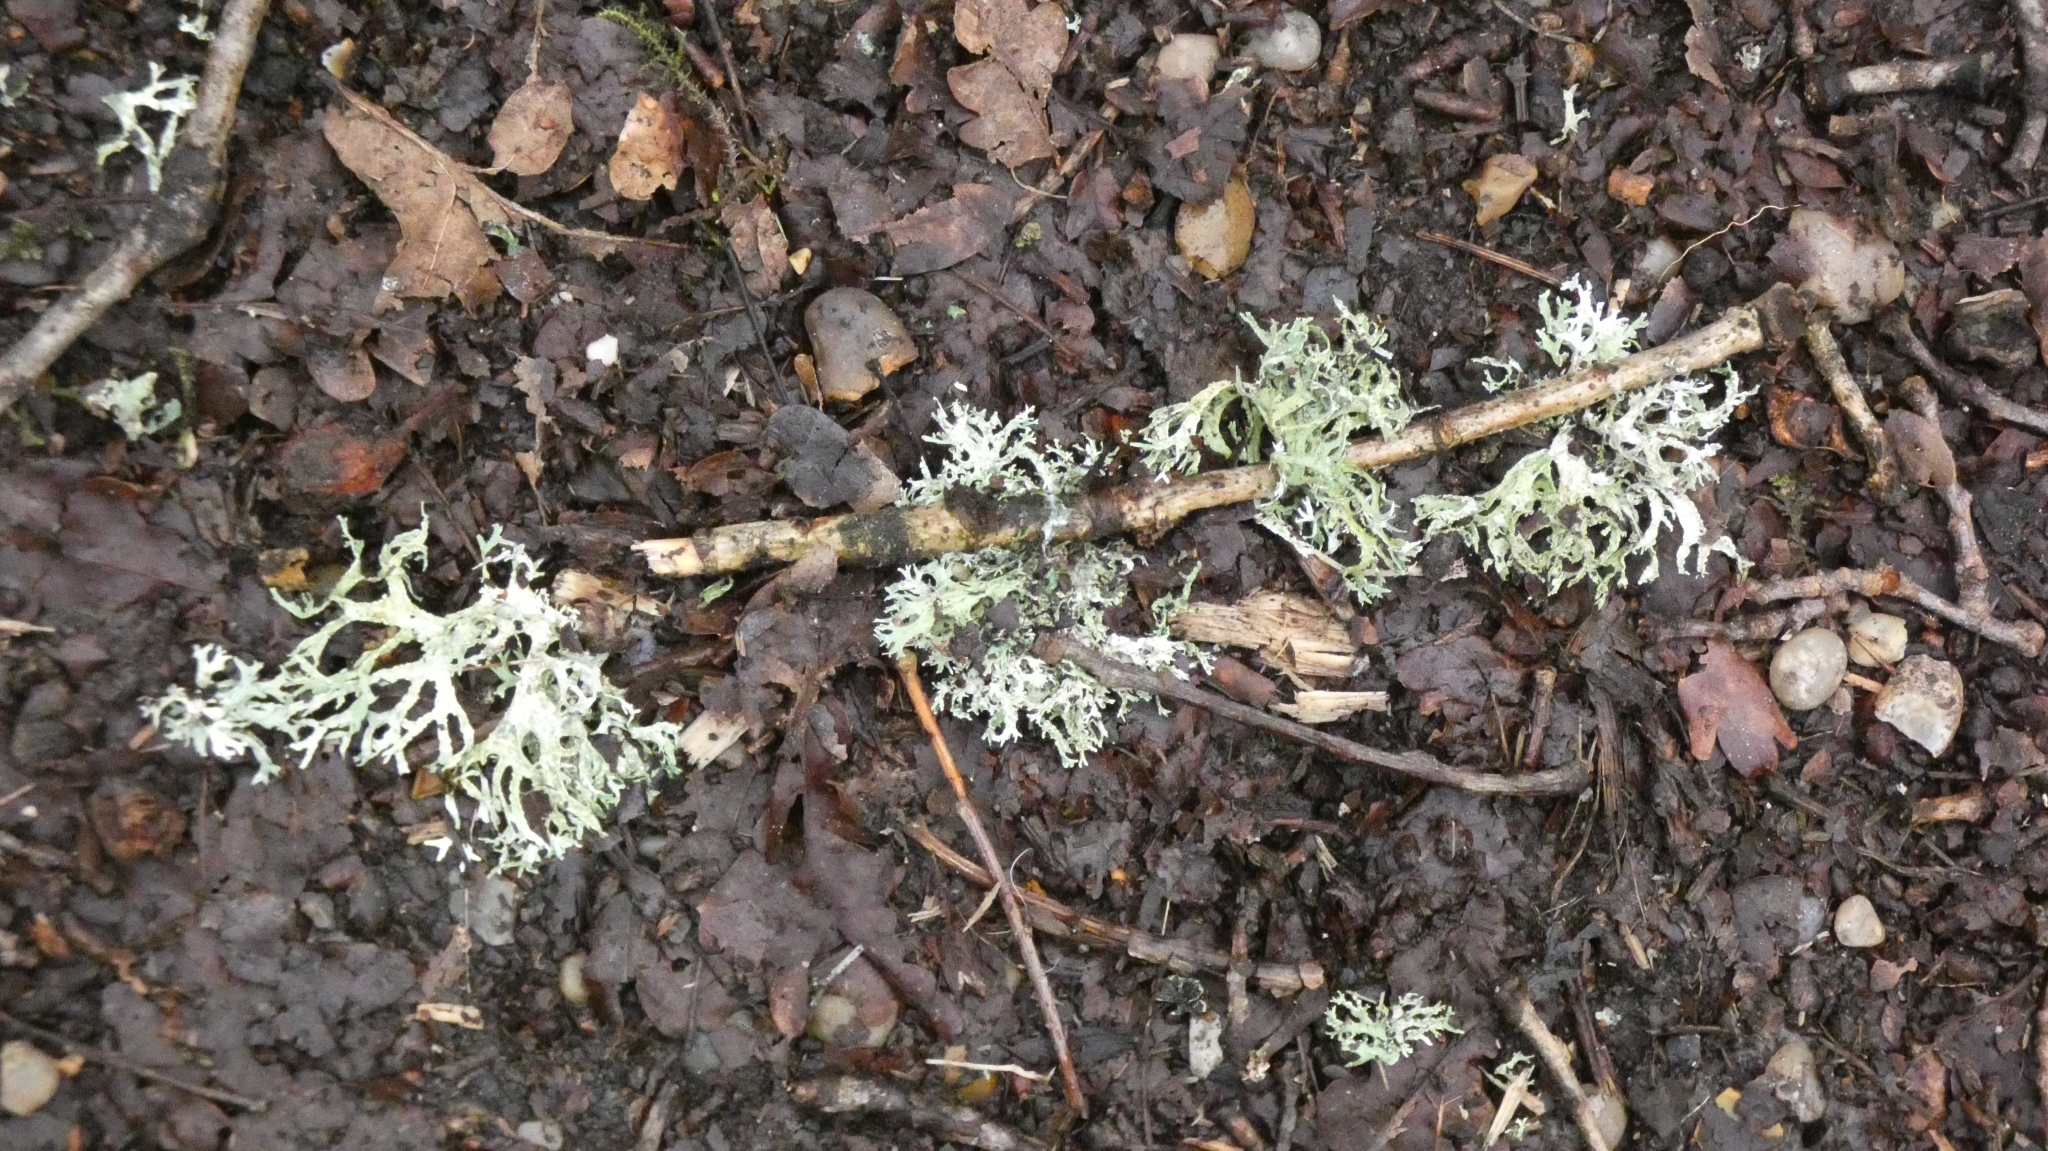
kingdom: Fungi
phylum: Ascomycota
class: Lecanoromycetes
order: Lecanorales
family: Parmeliaceae
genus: Evernia
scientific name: Evernia prunastri
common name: Oak moss
